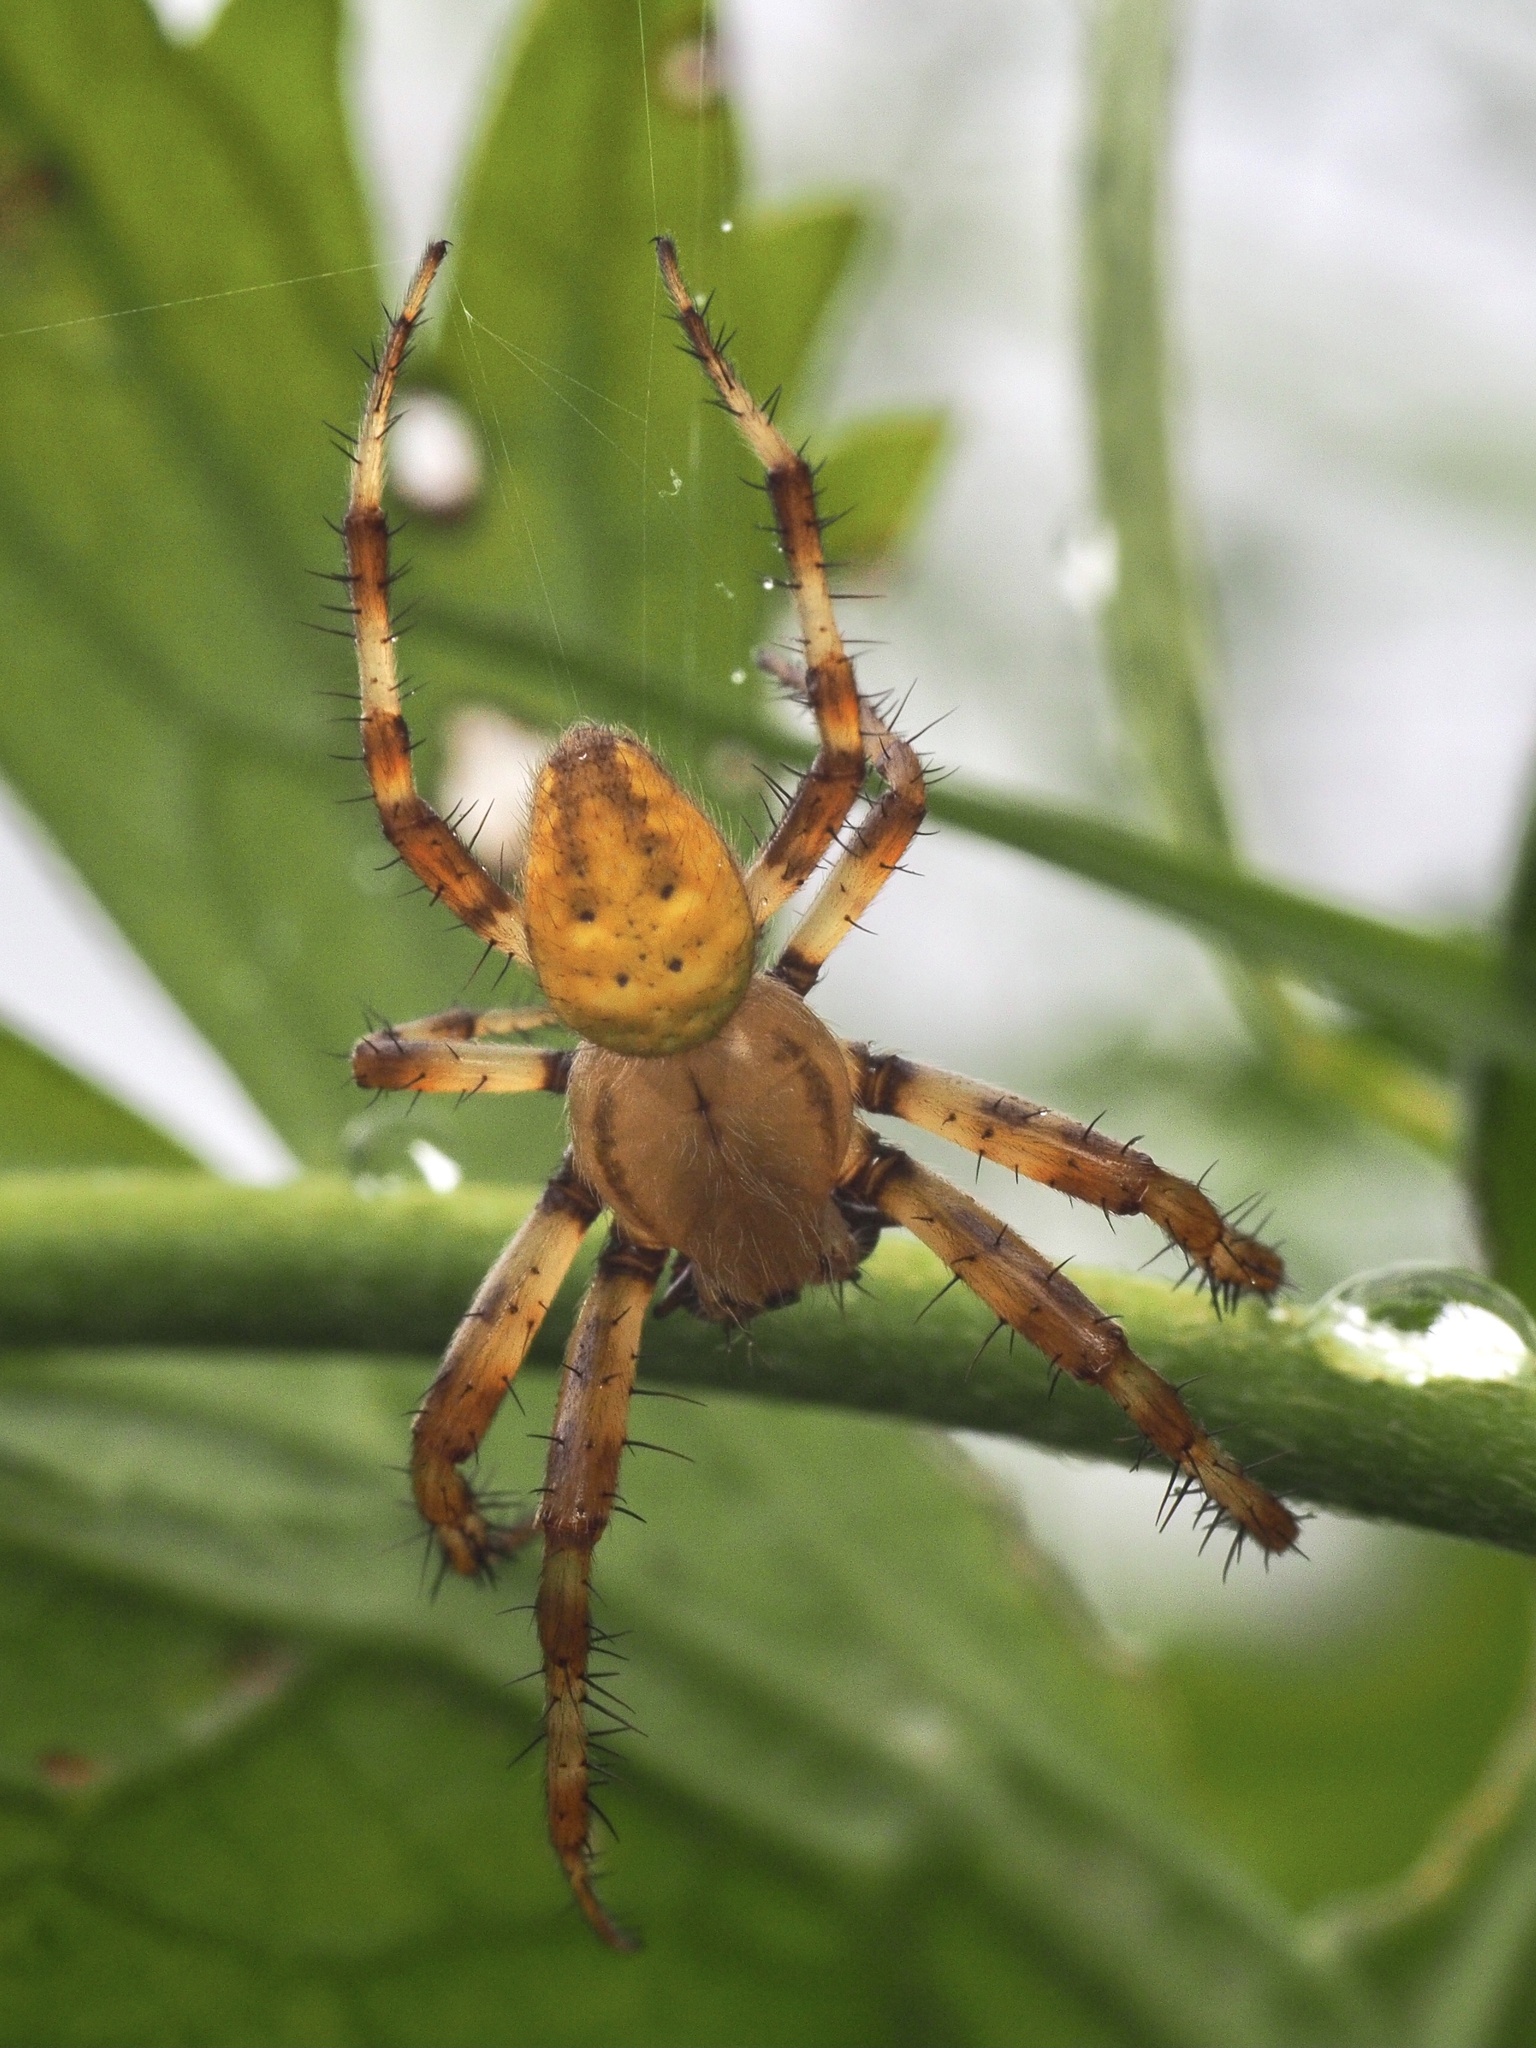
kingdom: Animalia
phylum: Arthropoda
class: Arachnida
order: Araneae
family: Araneidae
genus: Araneus
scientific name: Araneus quadratus
